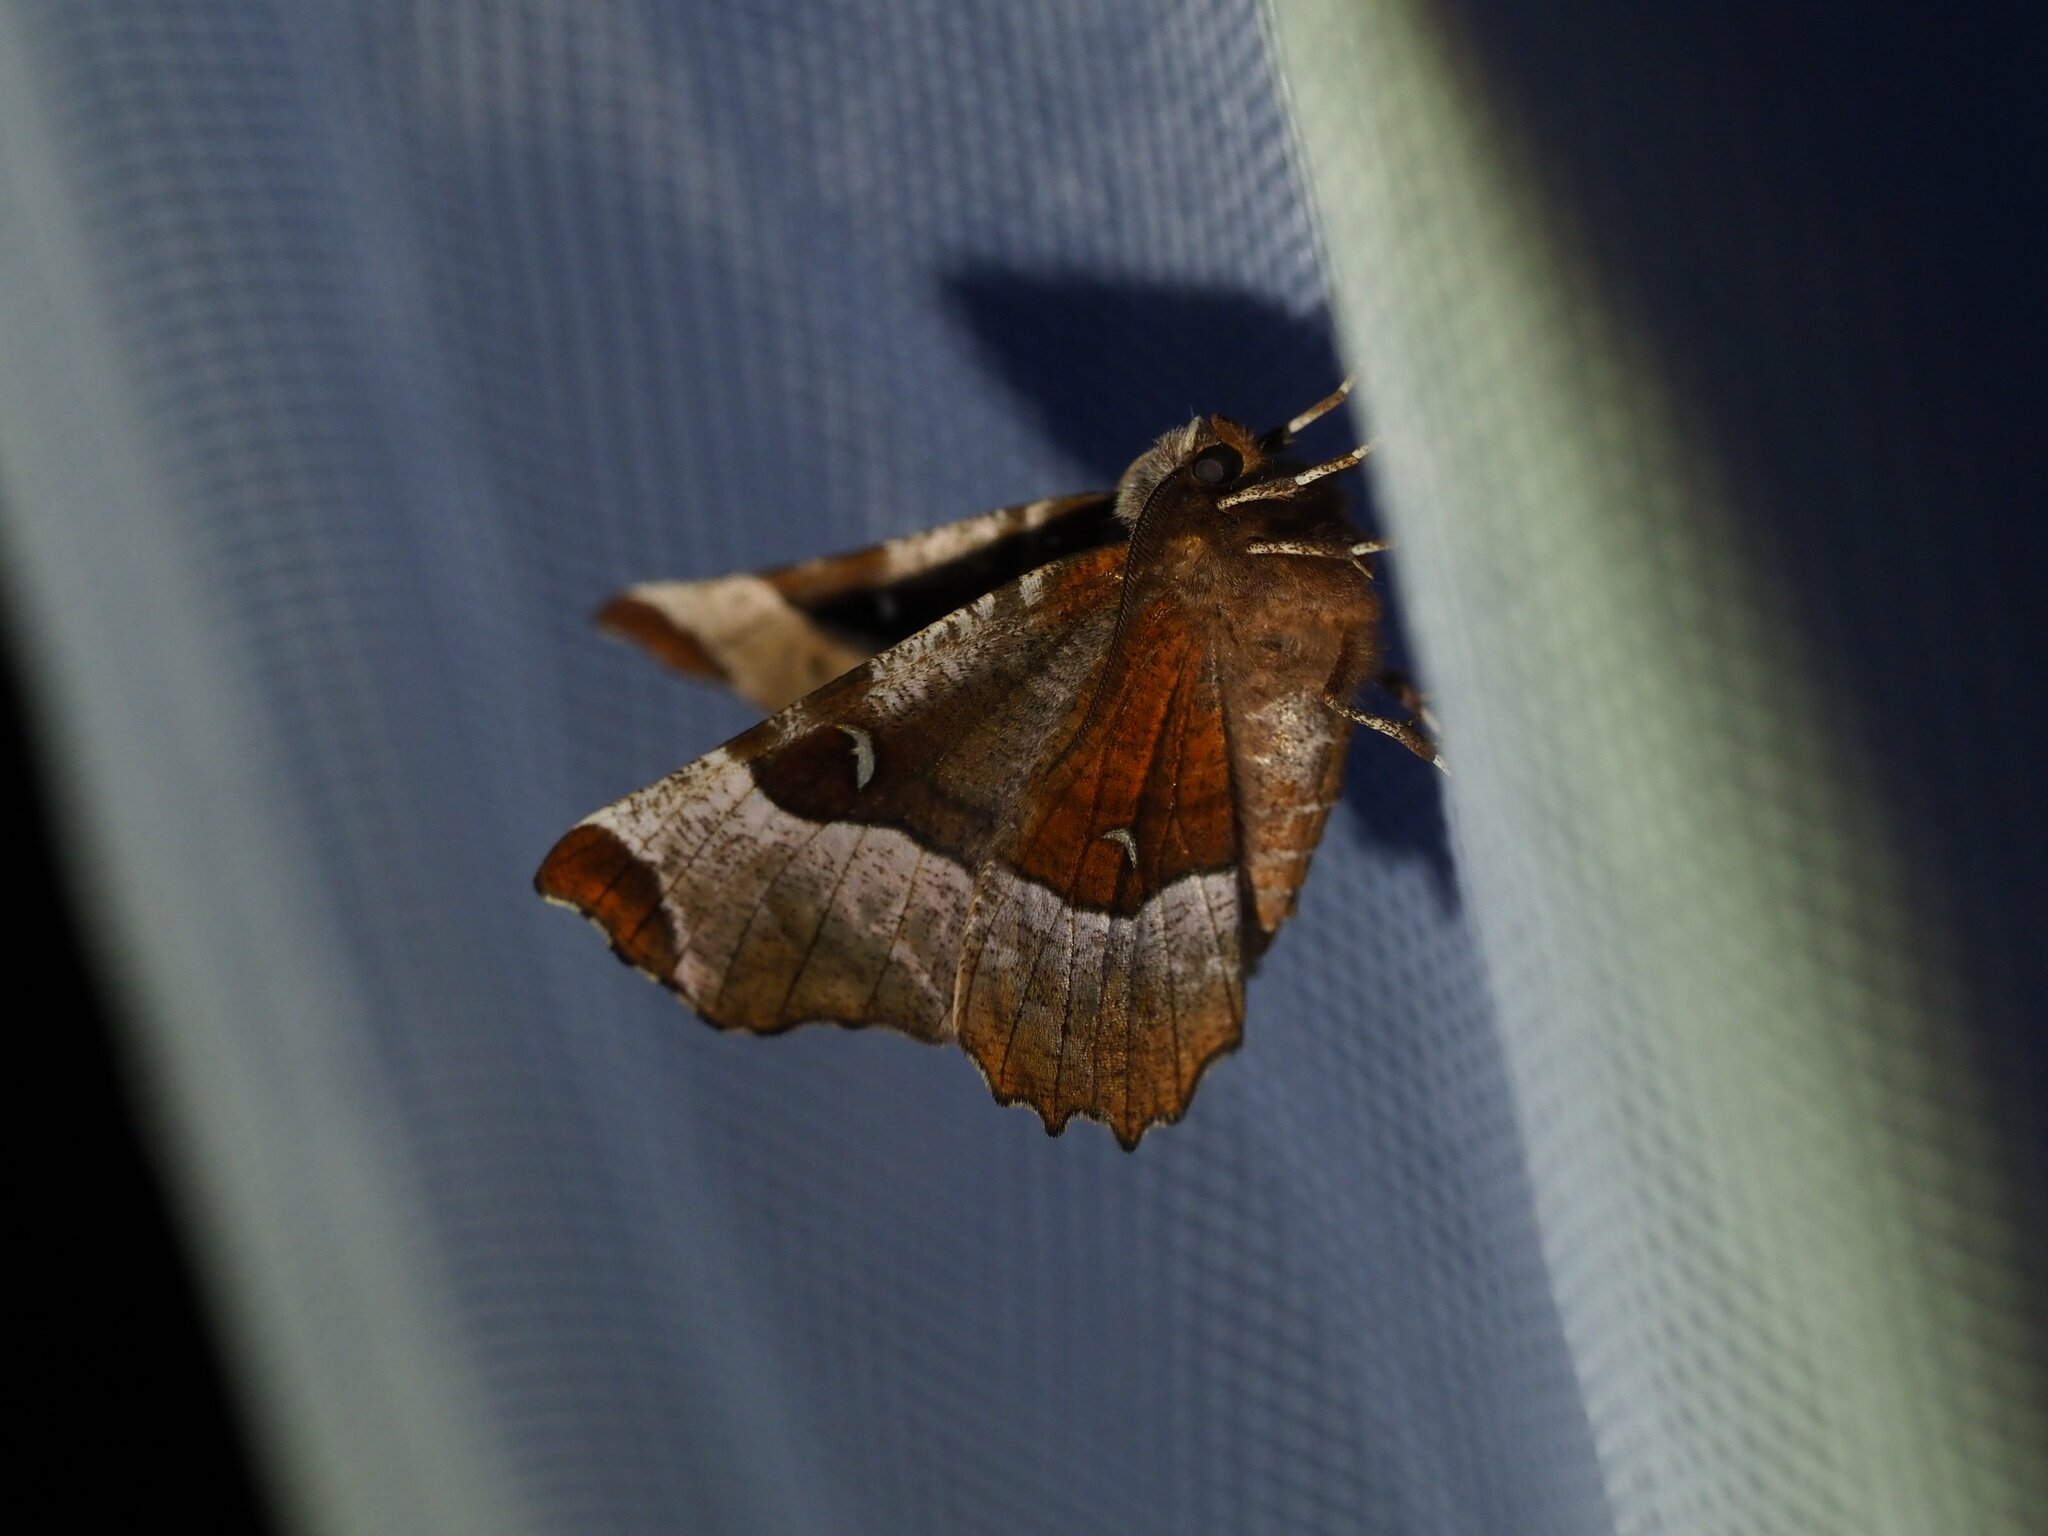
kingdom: Animalia
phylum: Arthropoda
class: Insecta
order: Lepidoptera
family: Geometridae
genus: Selenia
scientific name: Selenia tetralunaria
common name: Purple thorn
